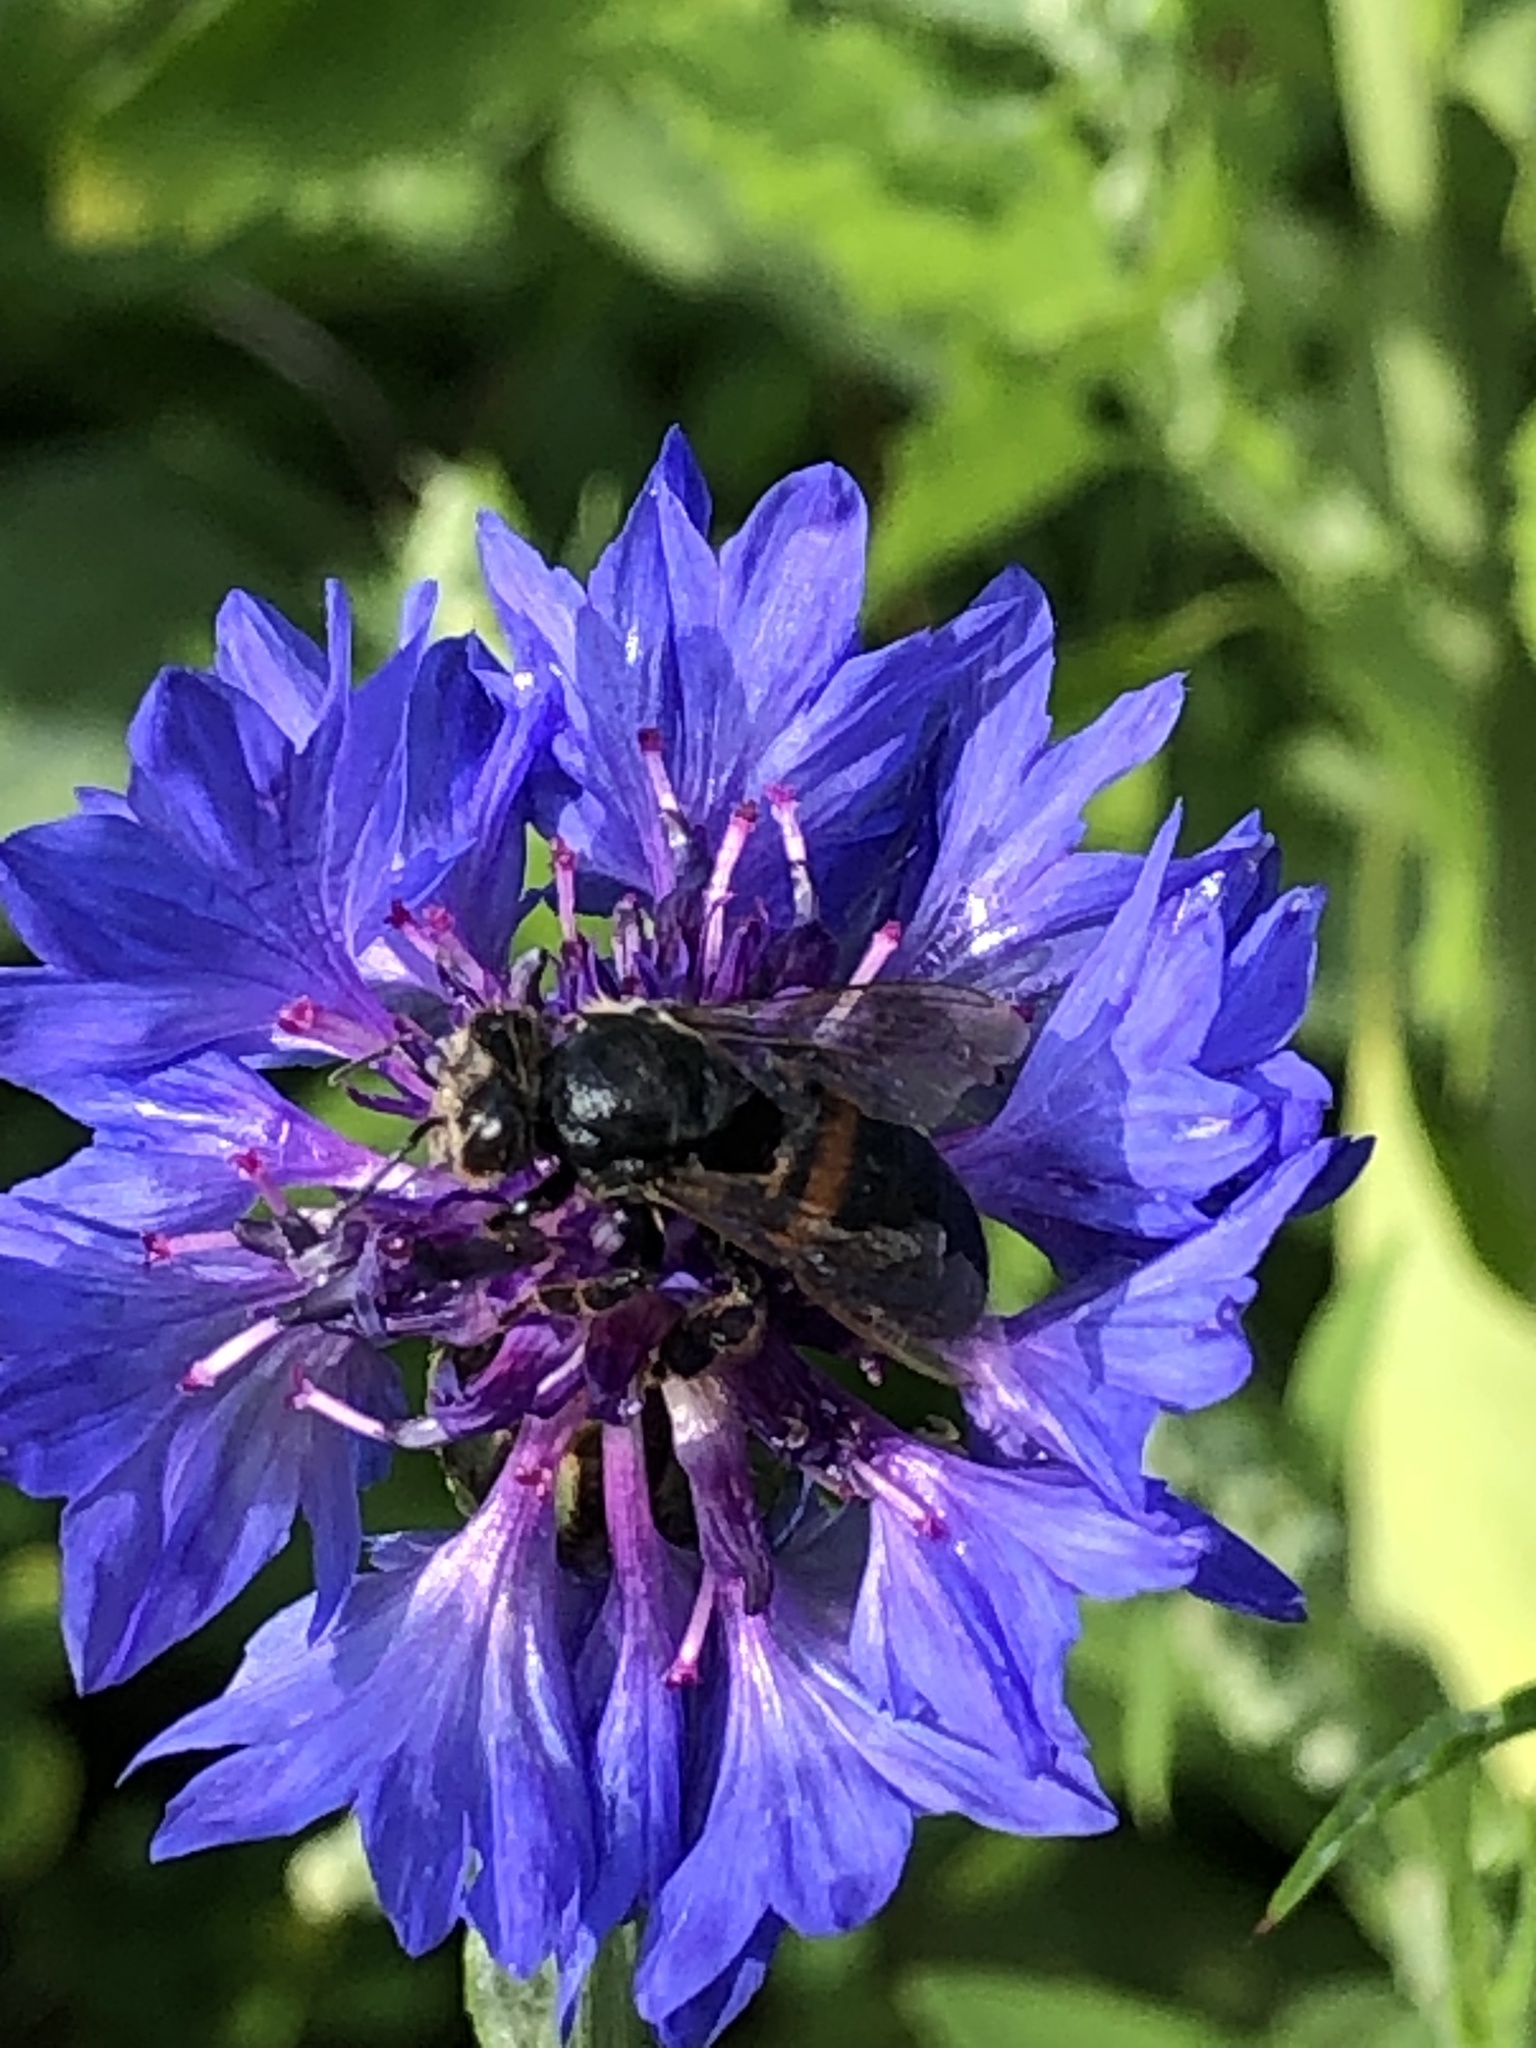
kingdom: Animalia
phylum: Arthropoda
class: Insecta
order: Hymenoptera
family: Apidae
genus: Apis
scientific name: Apis mellifera
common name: Honey bee
